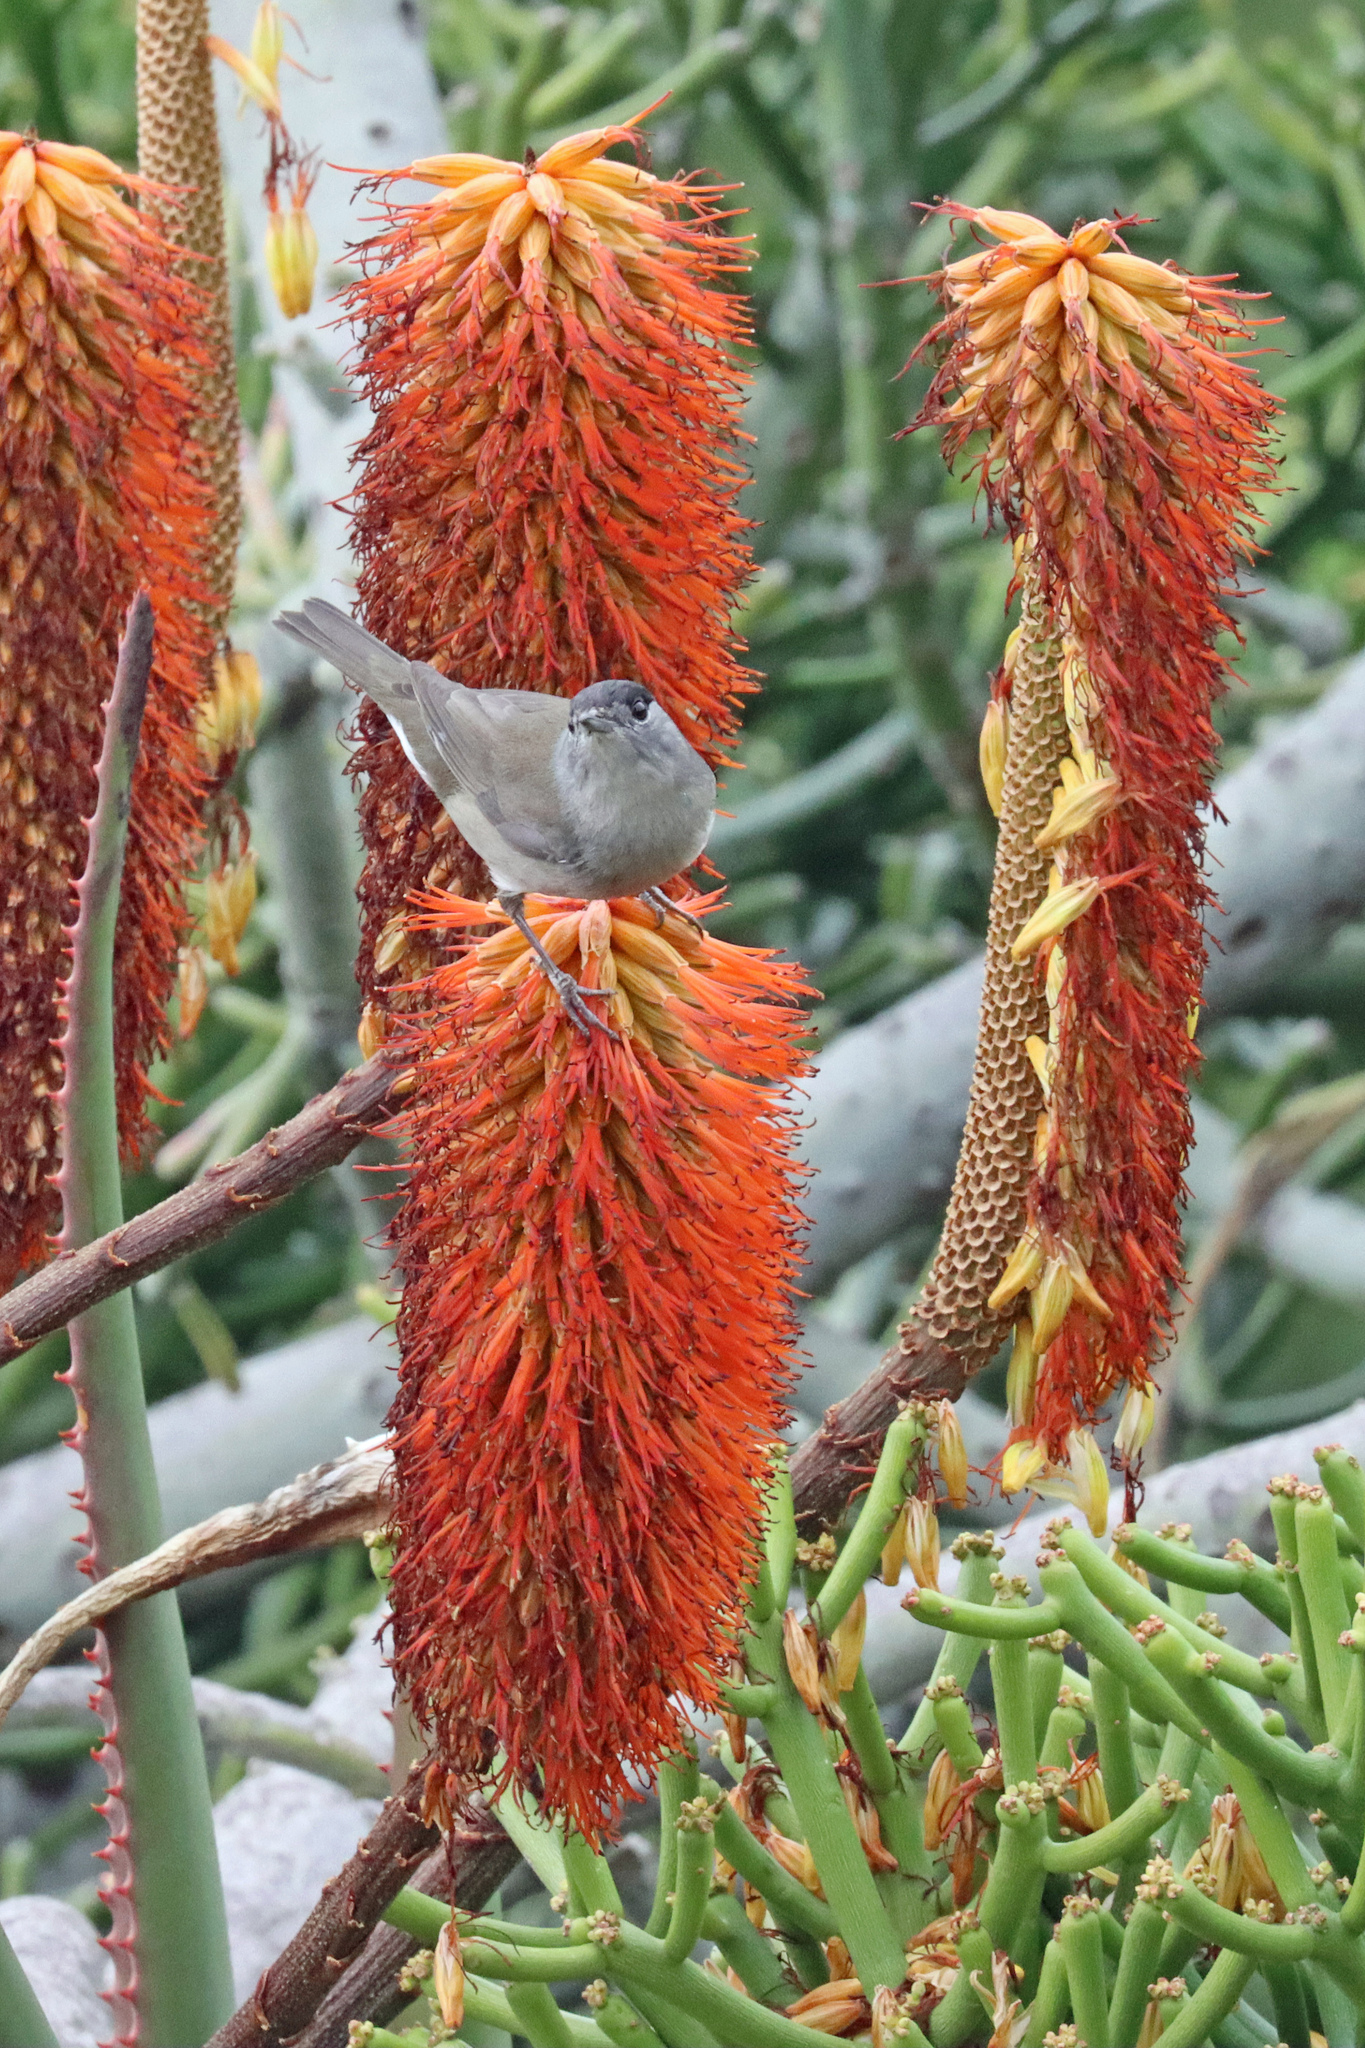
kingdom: Animalia
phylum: Chordata
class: Aves
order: Passeriformes
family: Sylviidae
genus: Sylvia
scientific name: Sylvia atricapilla
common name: Eurasian blackcap
